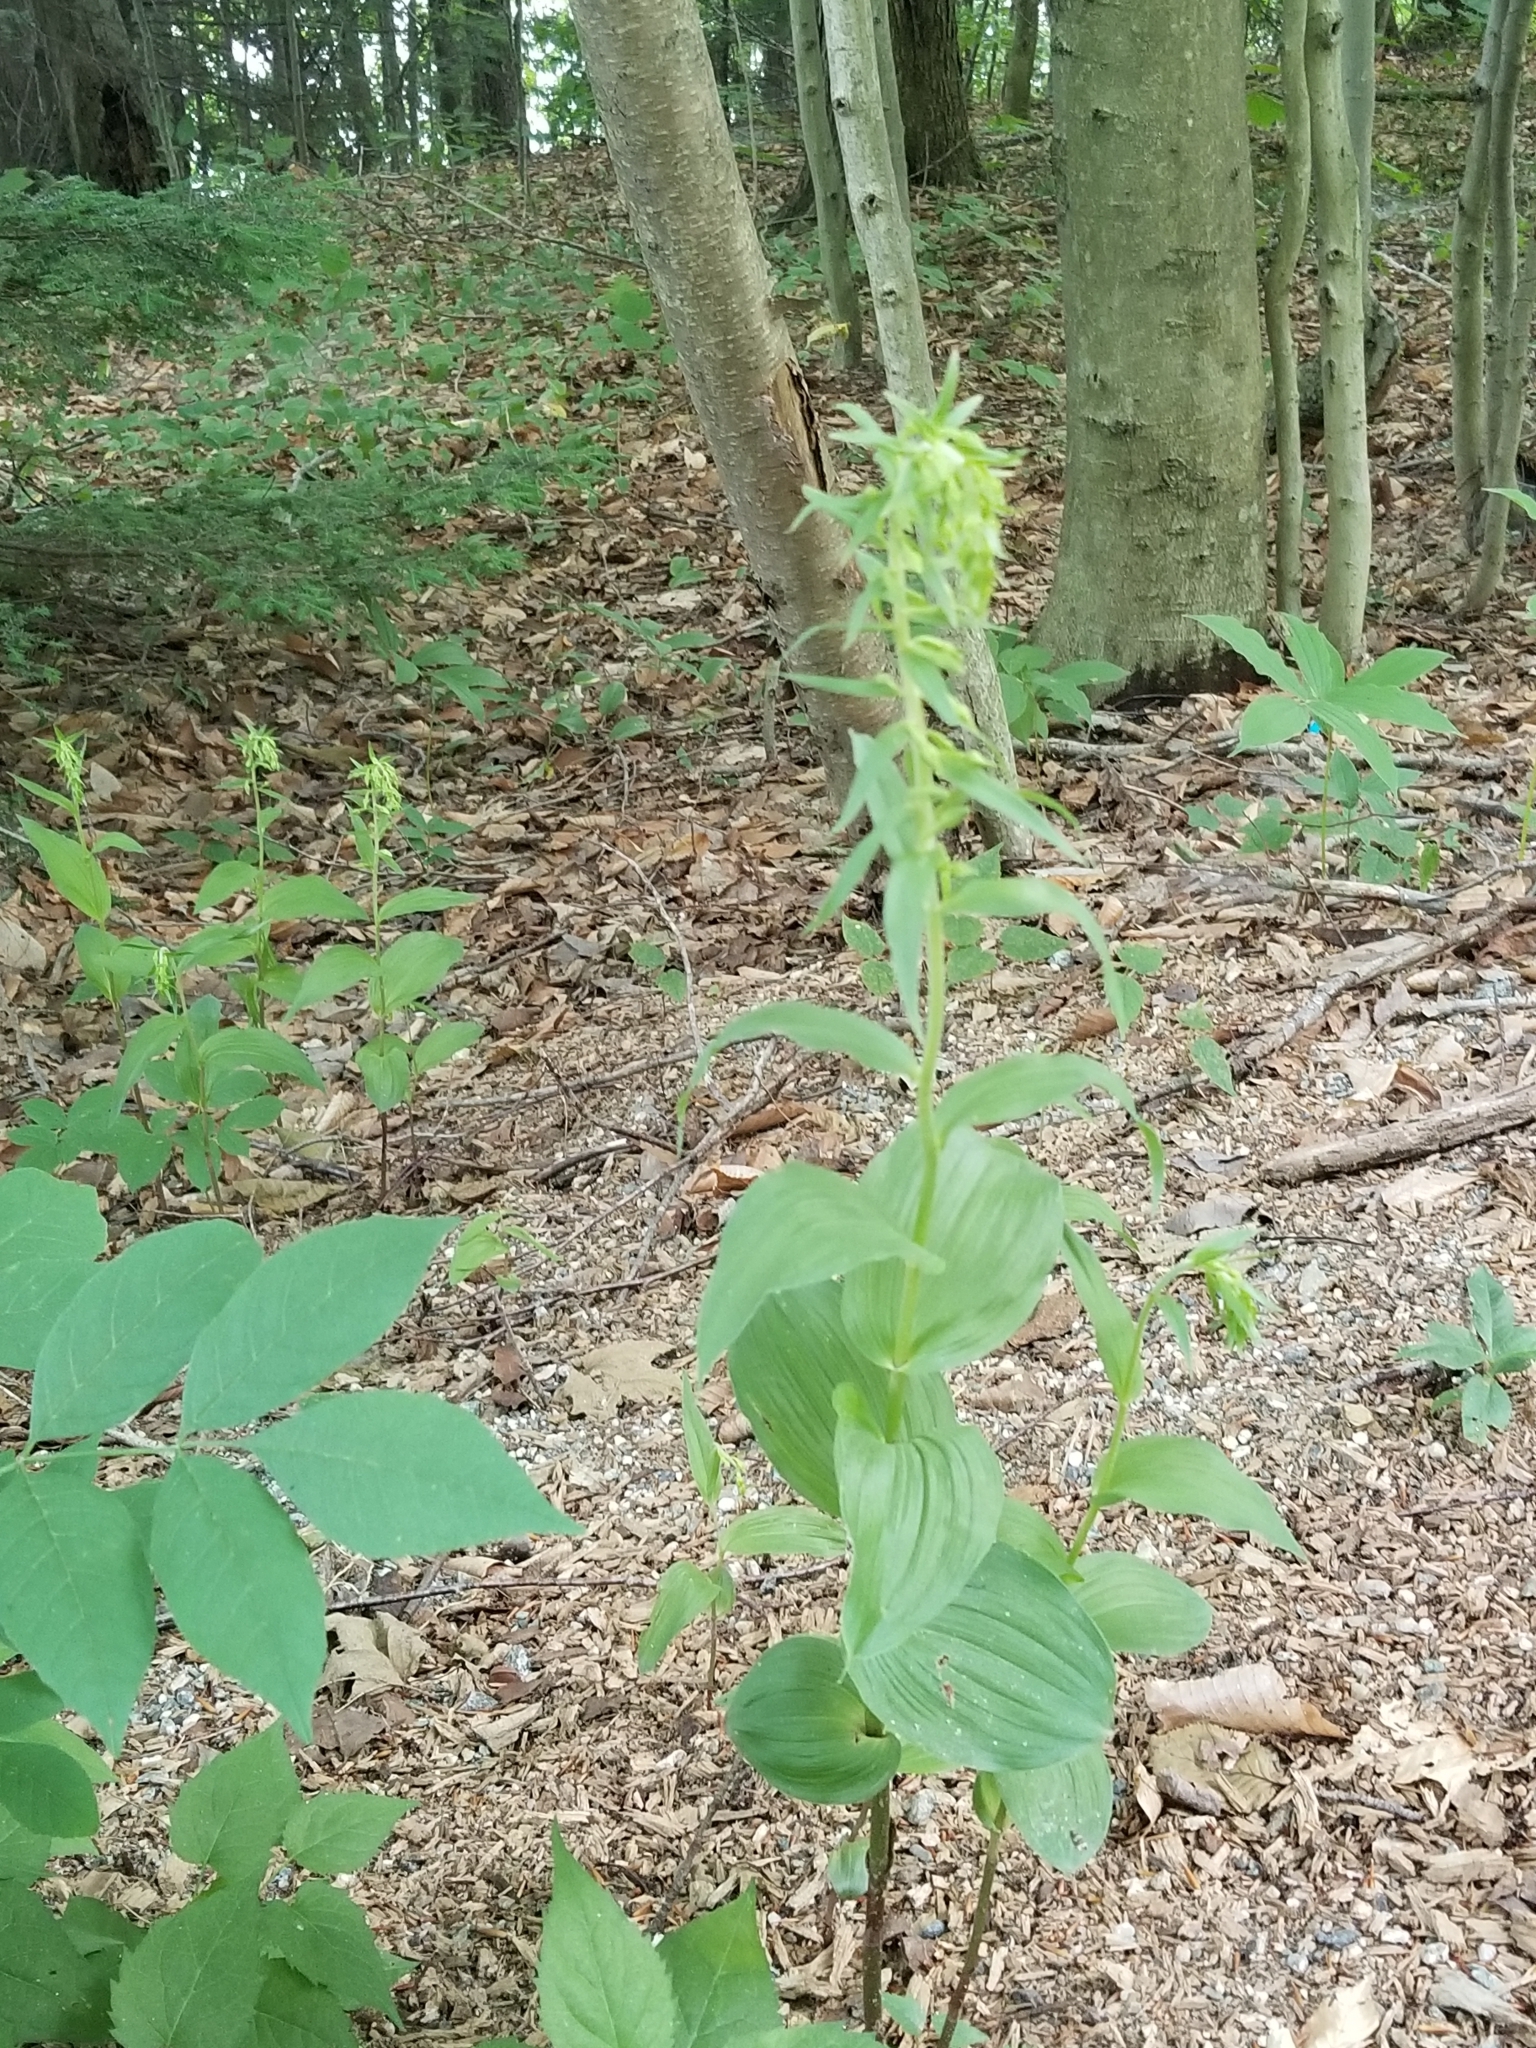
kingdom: Plantae
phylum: Tracheophyta
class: Liliopsida
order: Asparagales
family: Orchidaceae
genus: Epipactis
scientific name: Epipactis helleborine
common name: Broad-leaved helleborine
